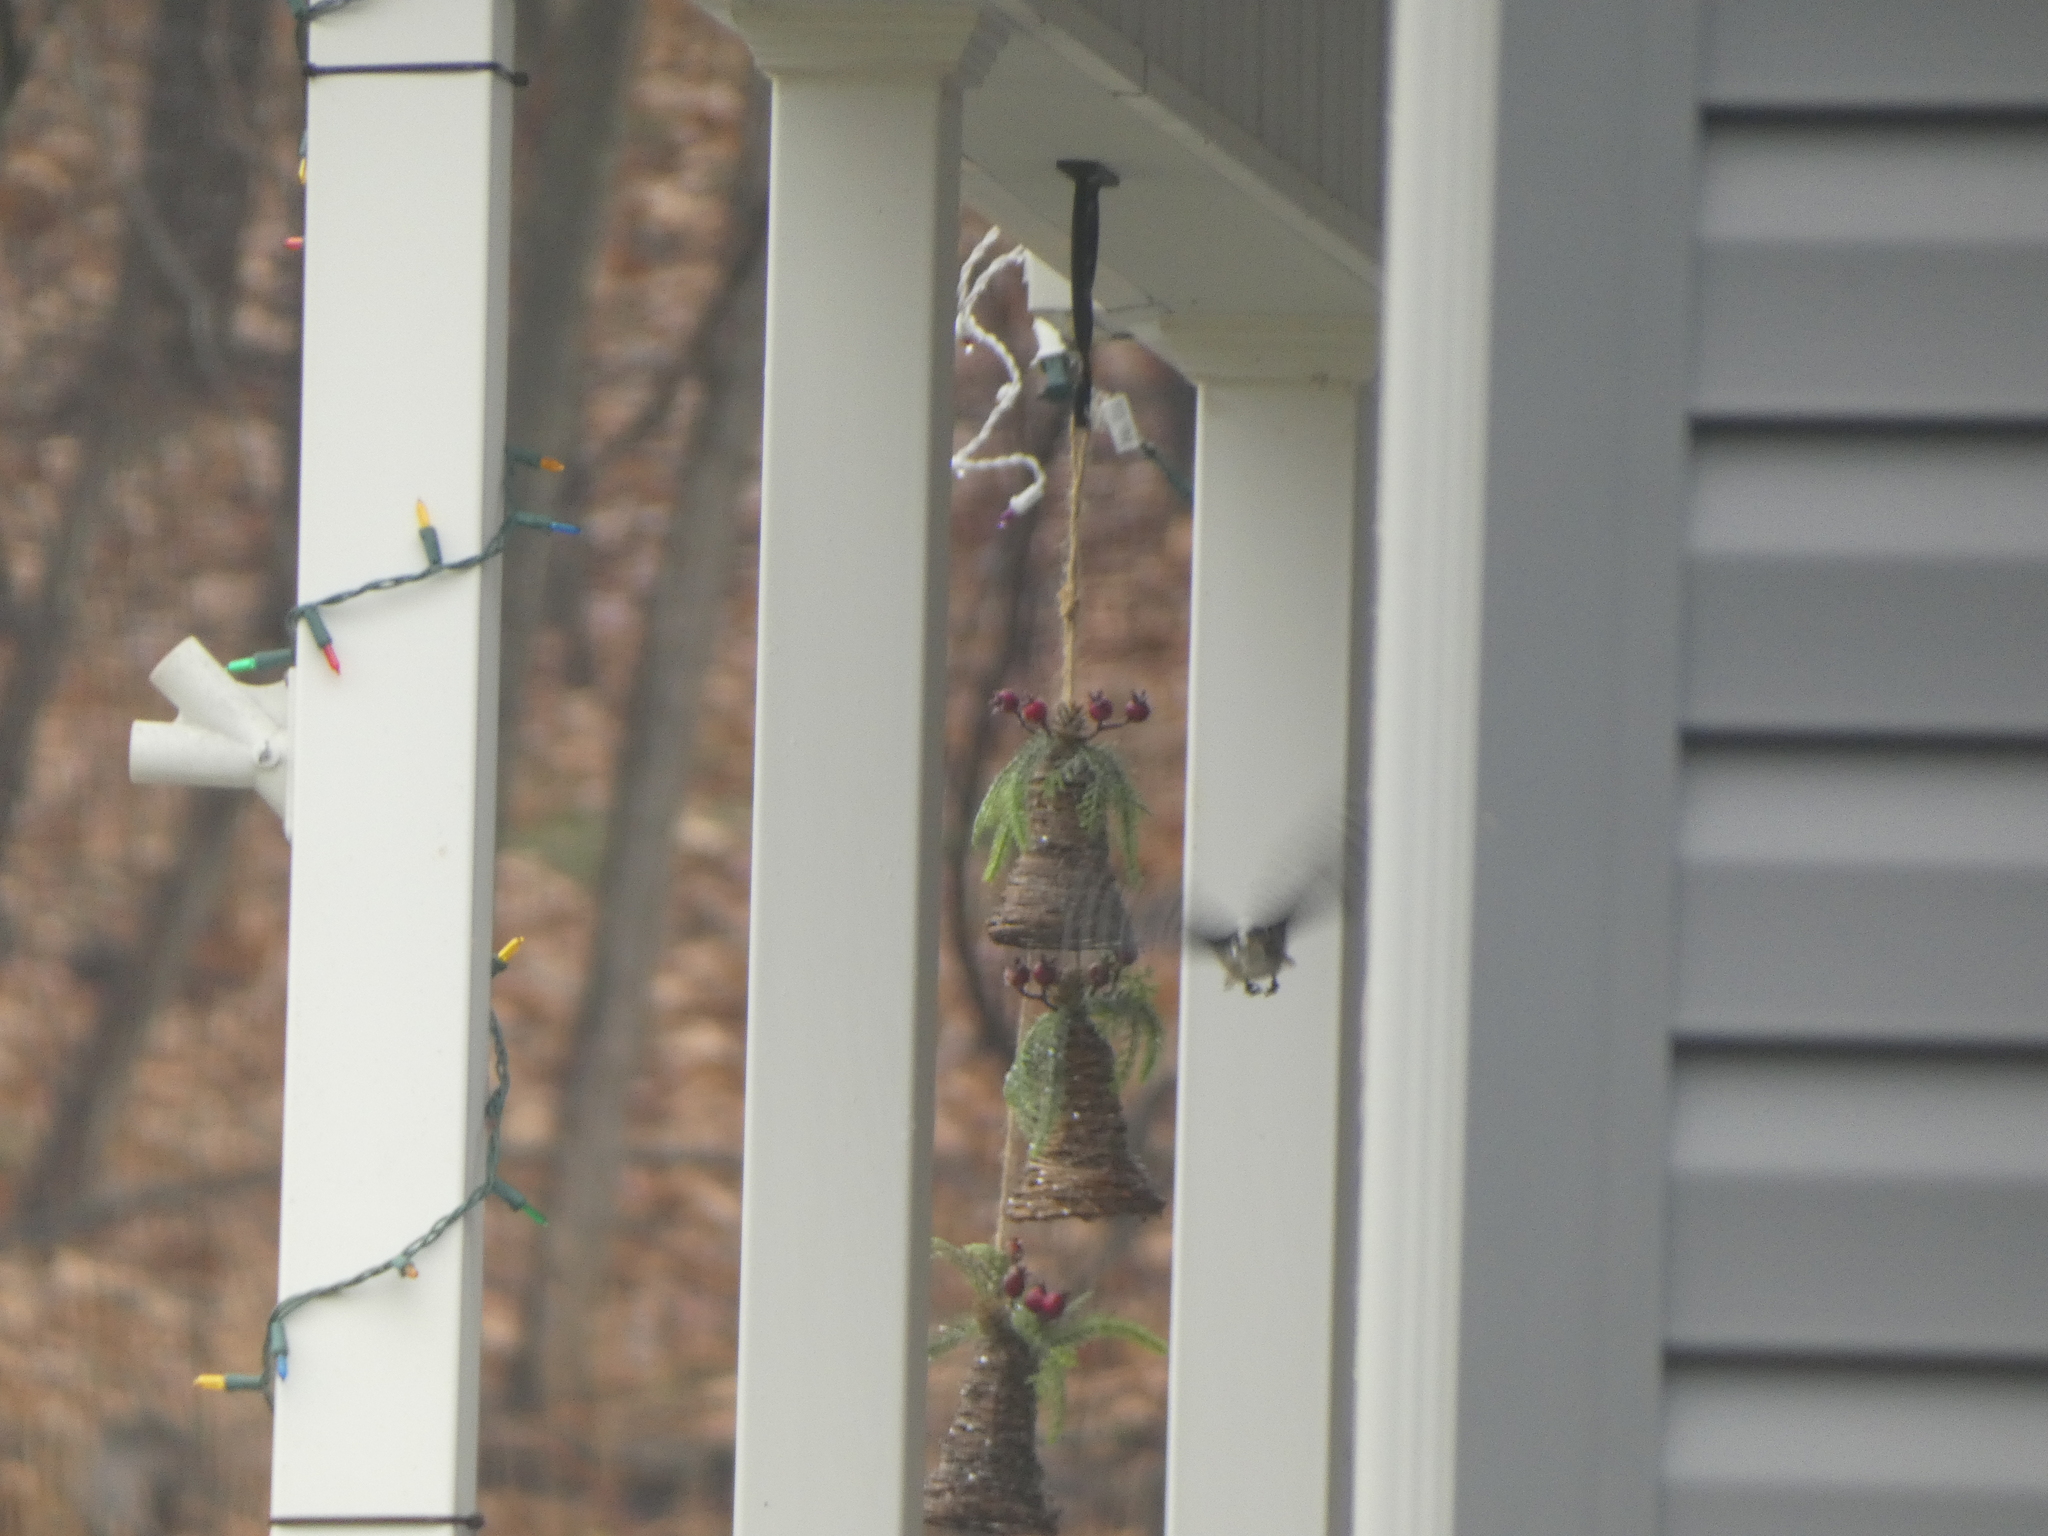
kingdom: Animalia
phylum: Chordata
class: Aves
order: Piciformes
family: Picidae
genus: Dryobates
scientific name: Dryobates pubescens
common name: Downy woodpecker
